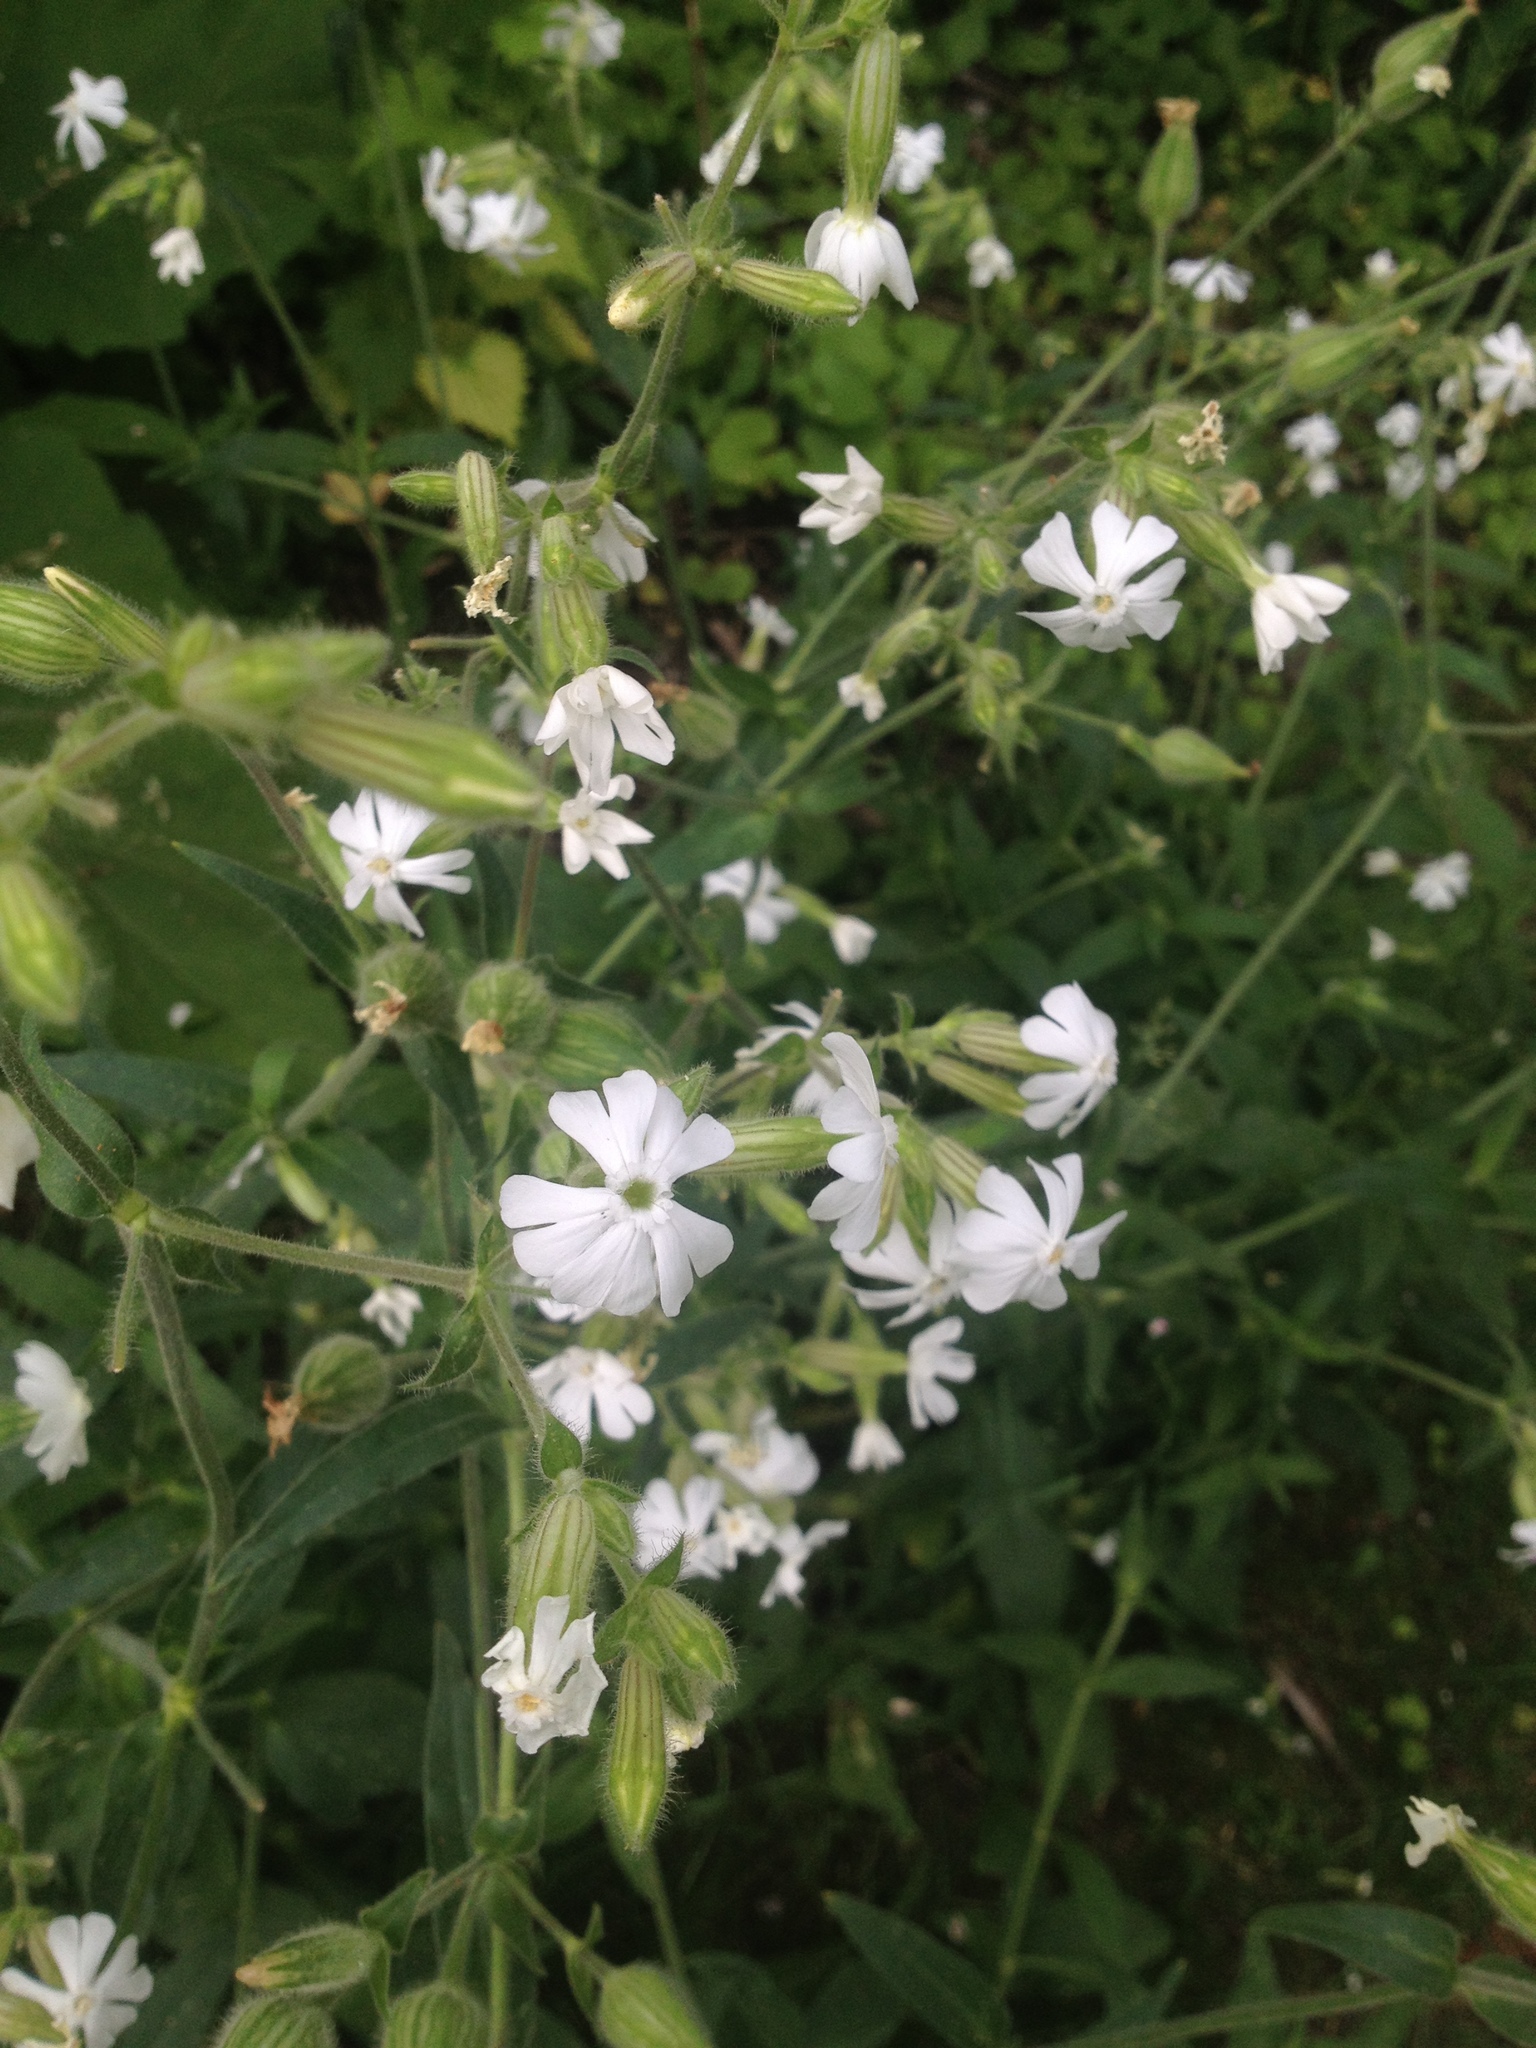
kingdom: Plantae
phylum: Tracheophyta
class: Magnoliopsida
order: Caryophyllales
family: Caryophyllaceae
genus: Silene
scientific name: Silene latifolia
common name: White campion
